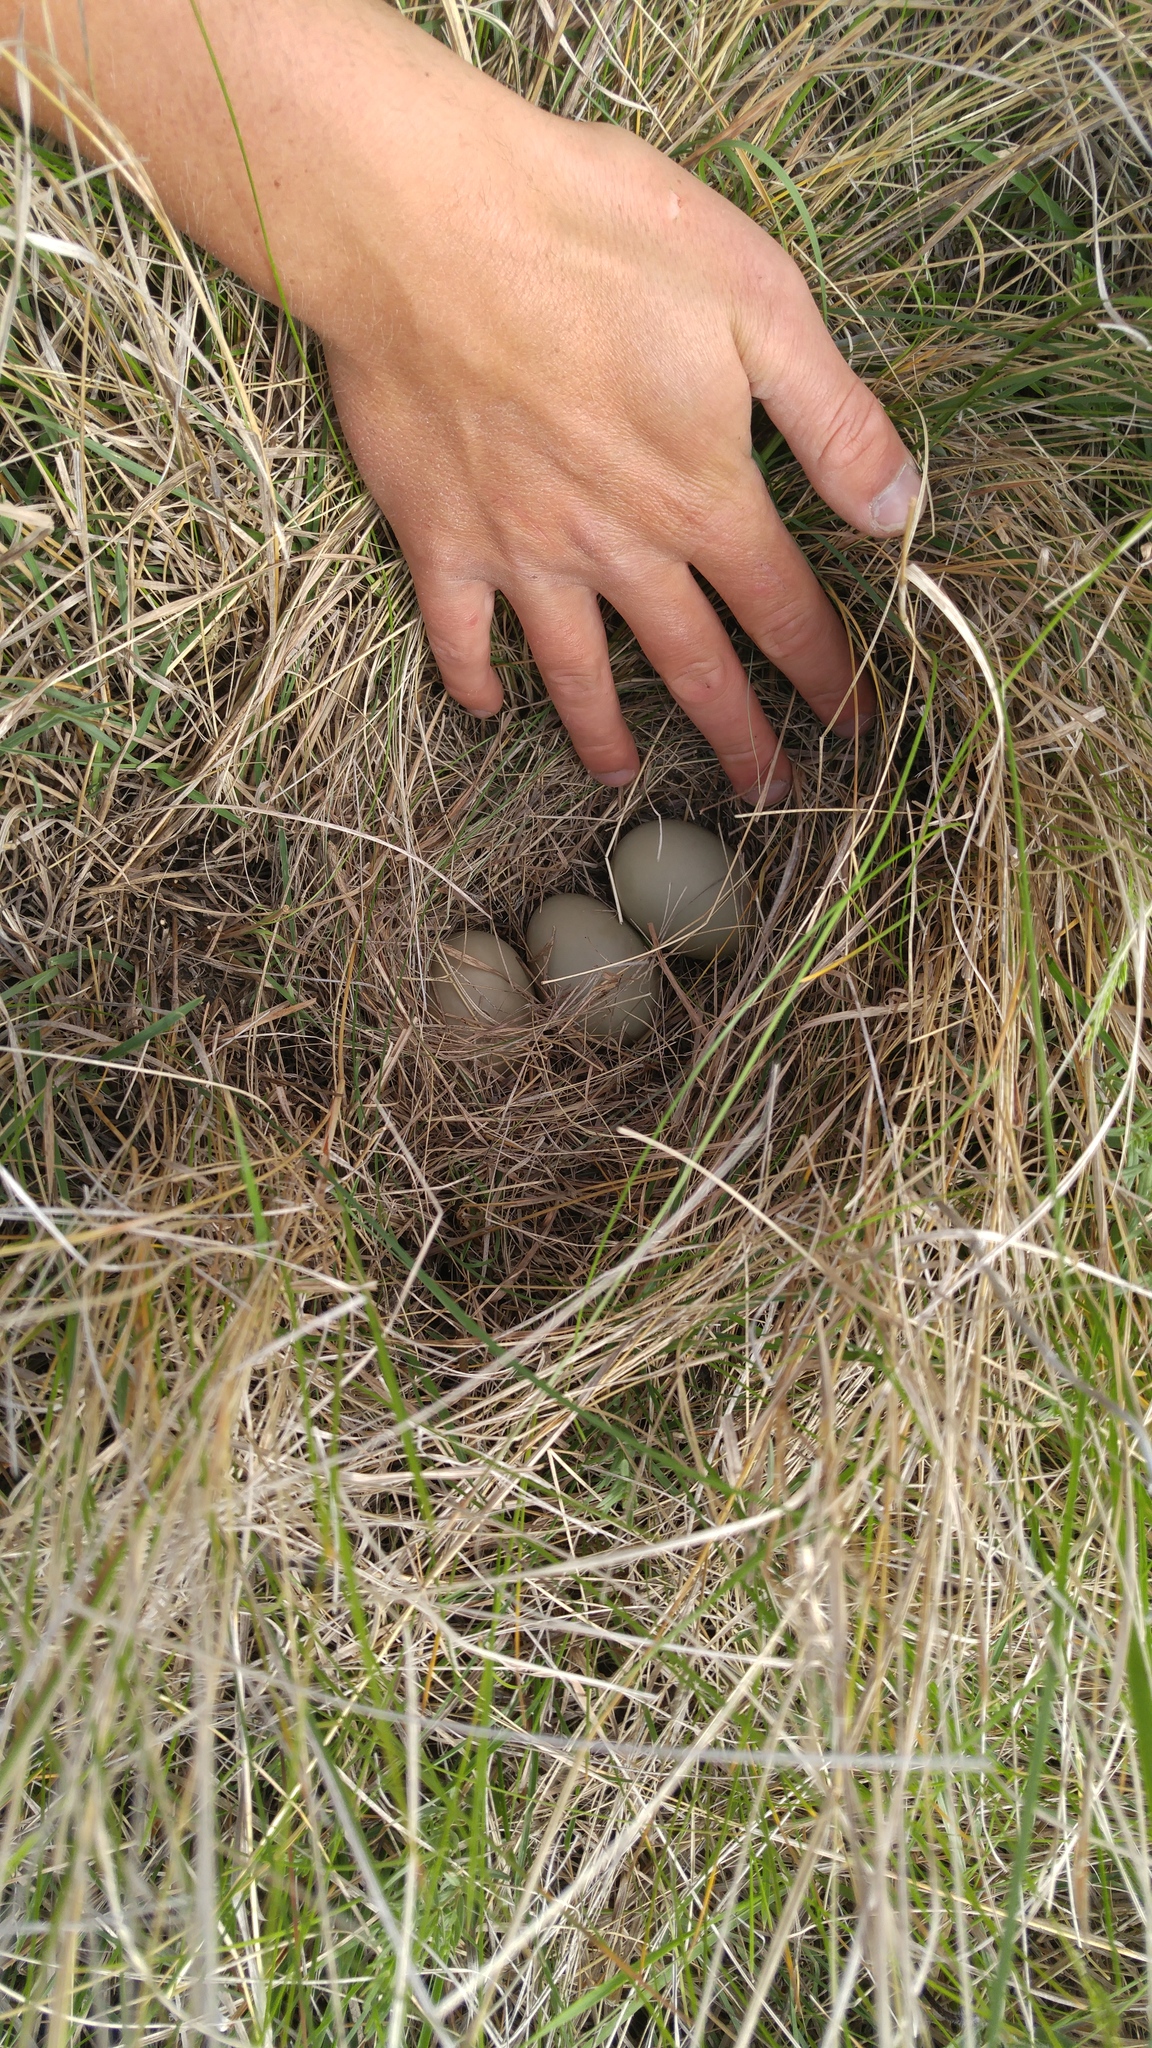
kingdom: Animalia
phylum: Chordata
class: Aves
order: Anseriformes
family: Anatidae
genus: Aythya
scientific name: Aythya affinis
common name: Lesser scaup
